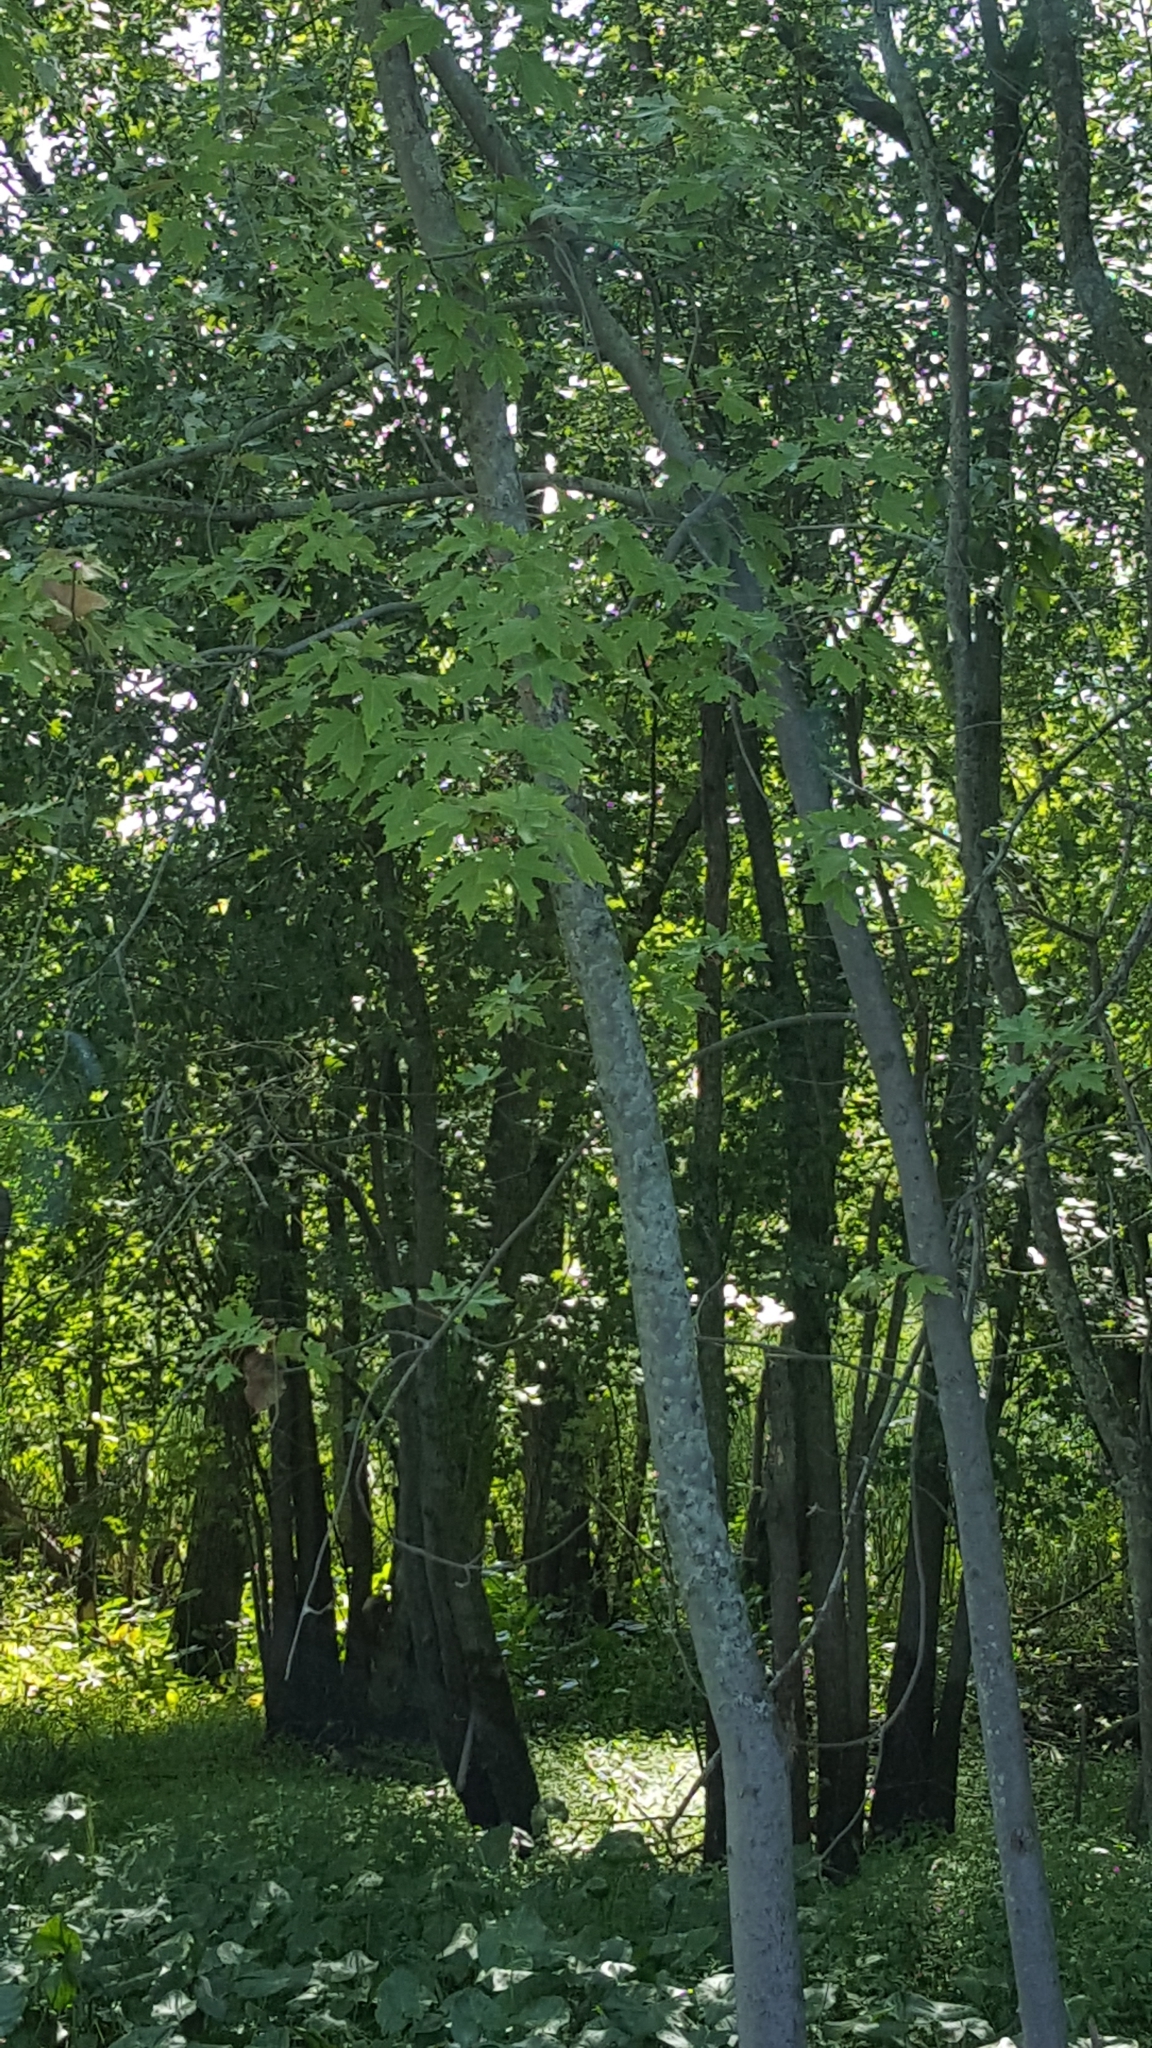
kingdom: Plantae
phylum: Tracheophyta
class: Magnoliopsida
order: Sapindales
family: Sapindaceae
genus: Acer
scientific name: Acer saccharinum
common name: Silver maple
